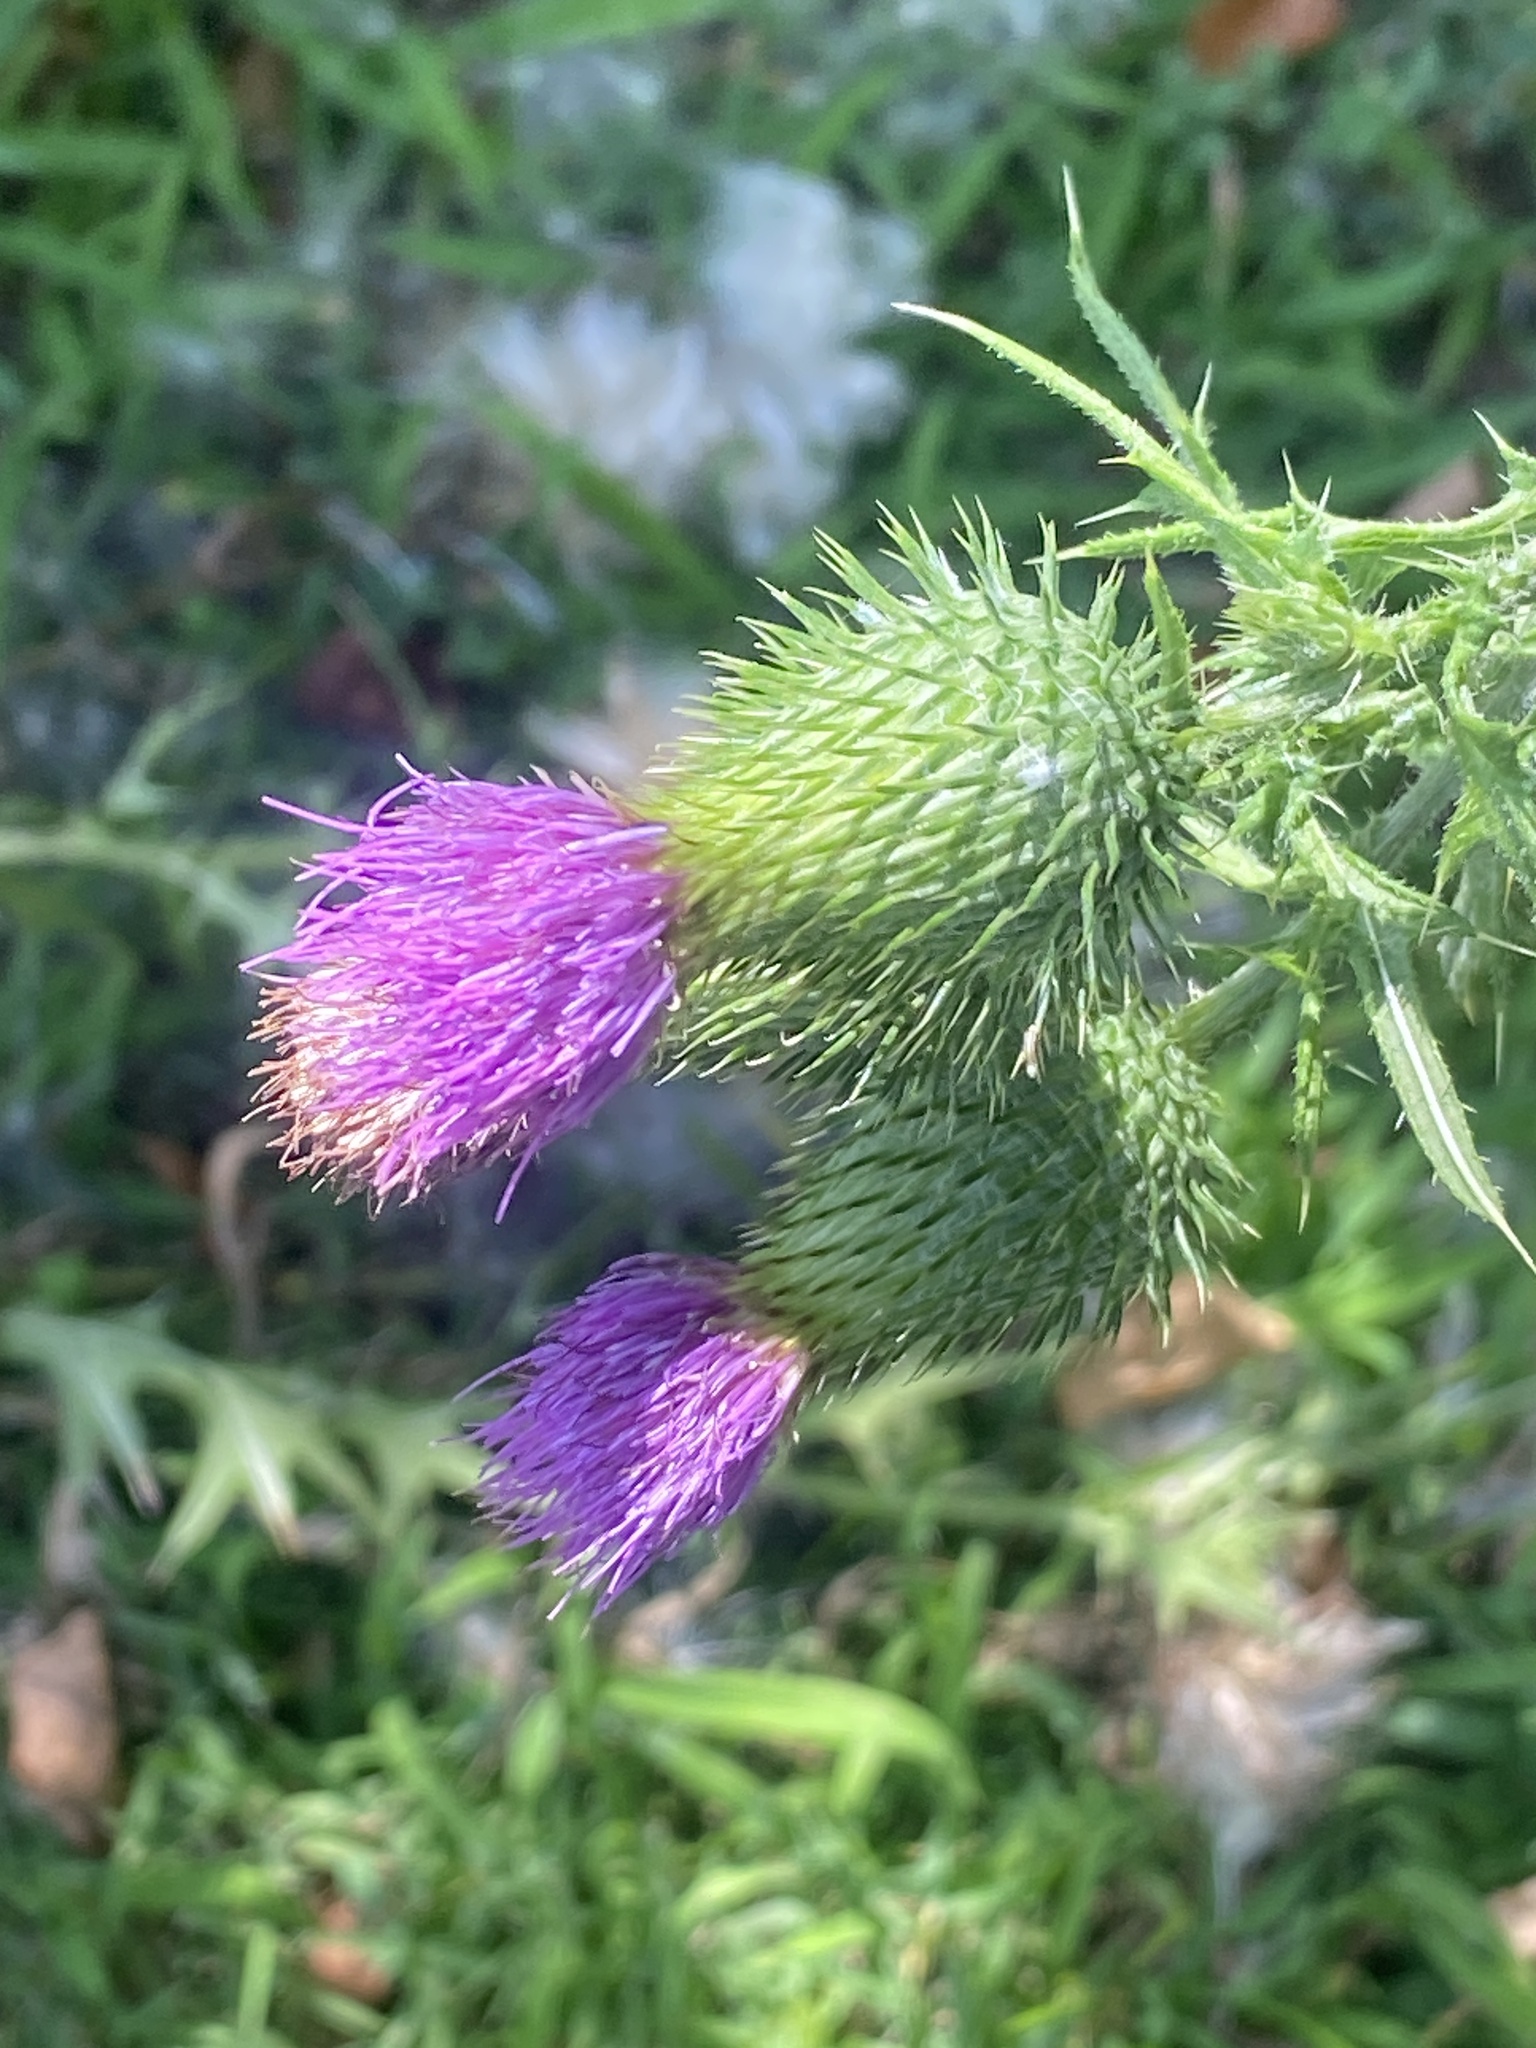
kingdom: Plantae
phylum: Tracheophyta
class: Magnoliopsida
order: Asterales
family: Asteraceae
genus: Cirsium
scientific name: Cirsium vulgare
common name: Bull thistle
